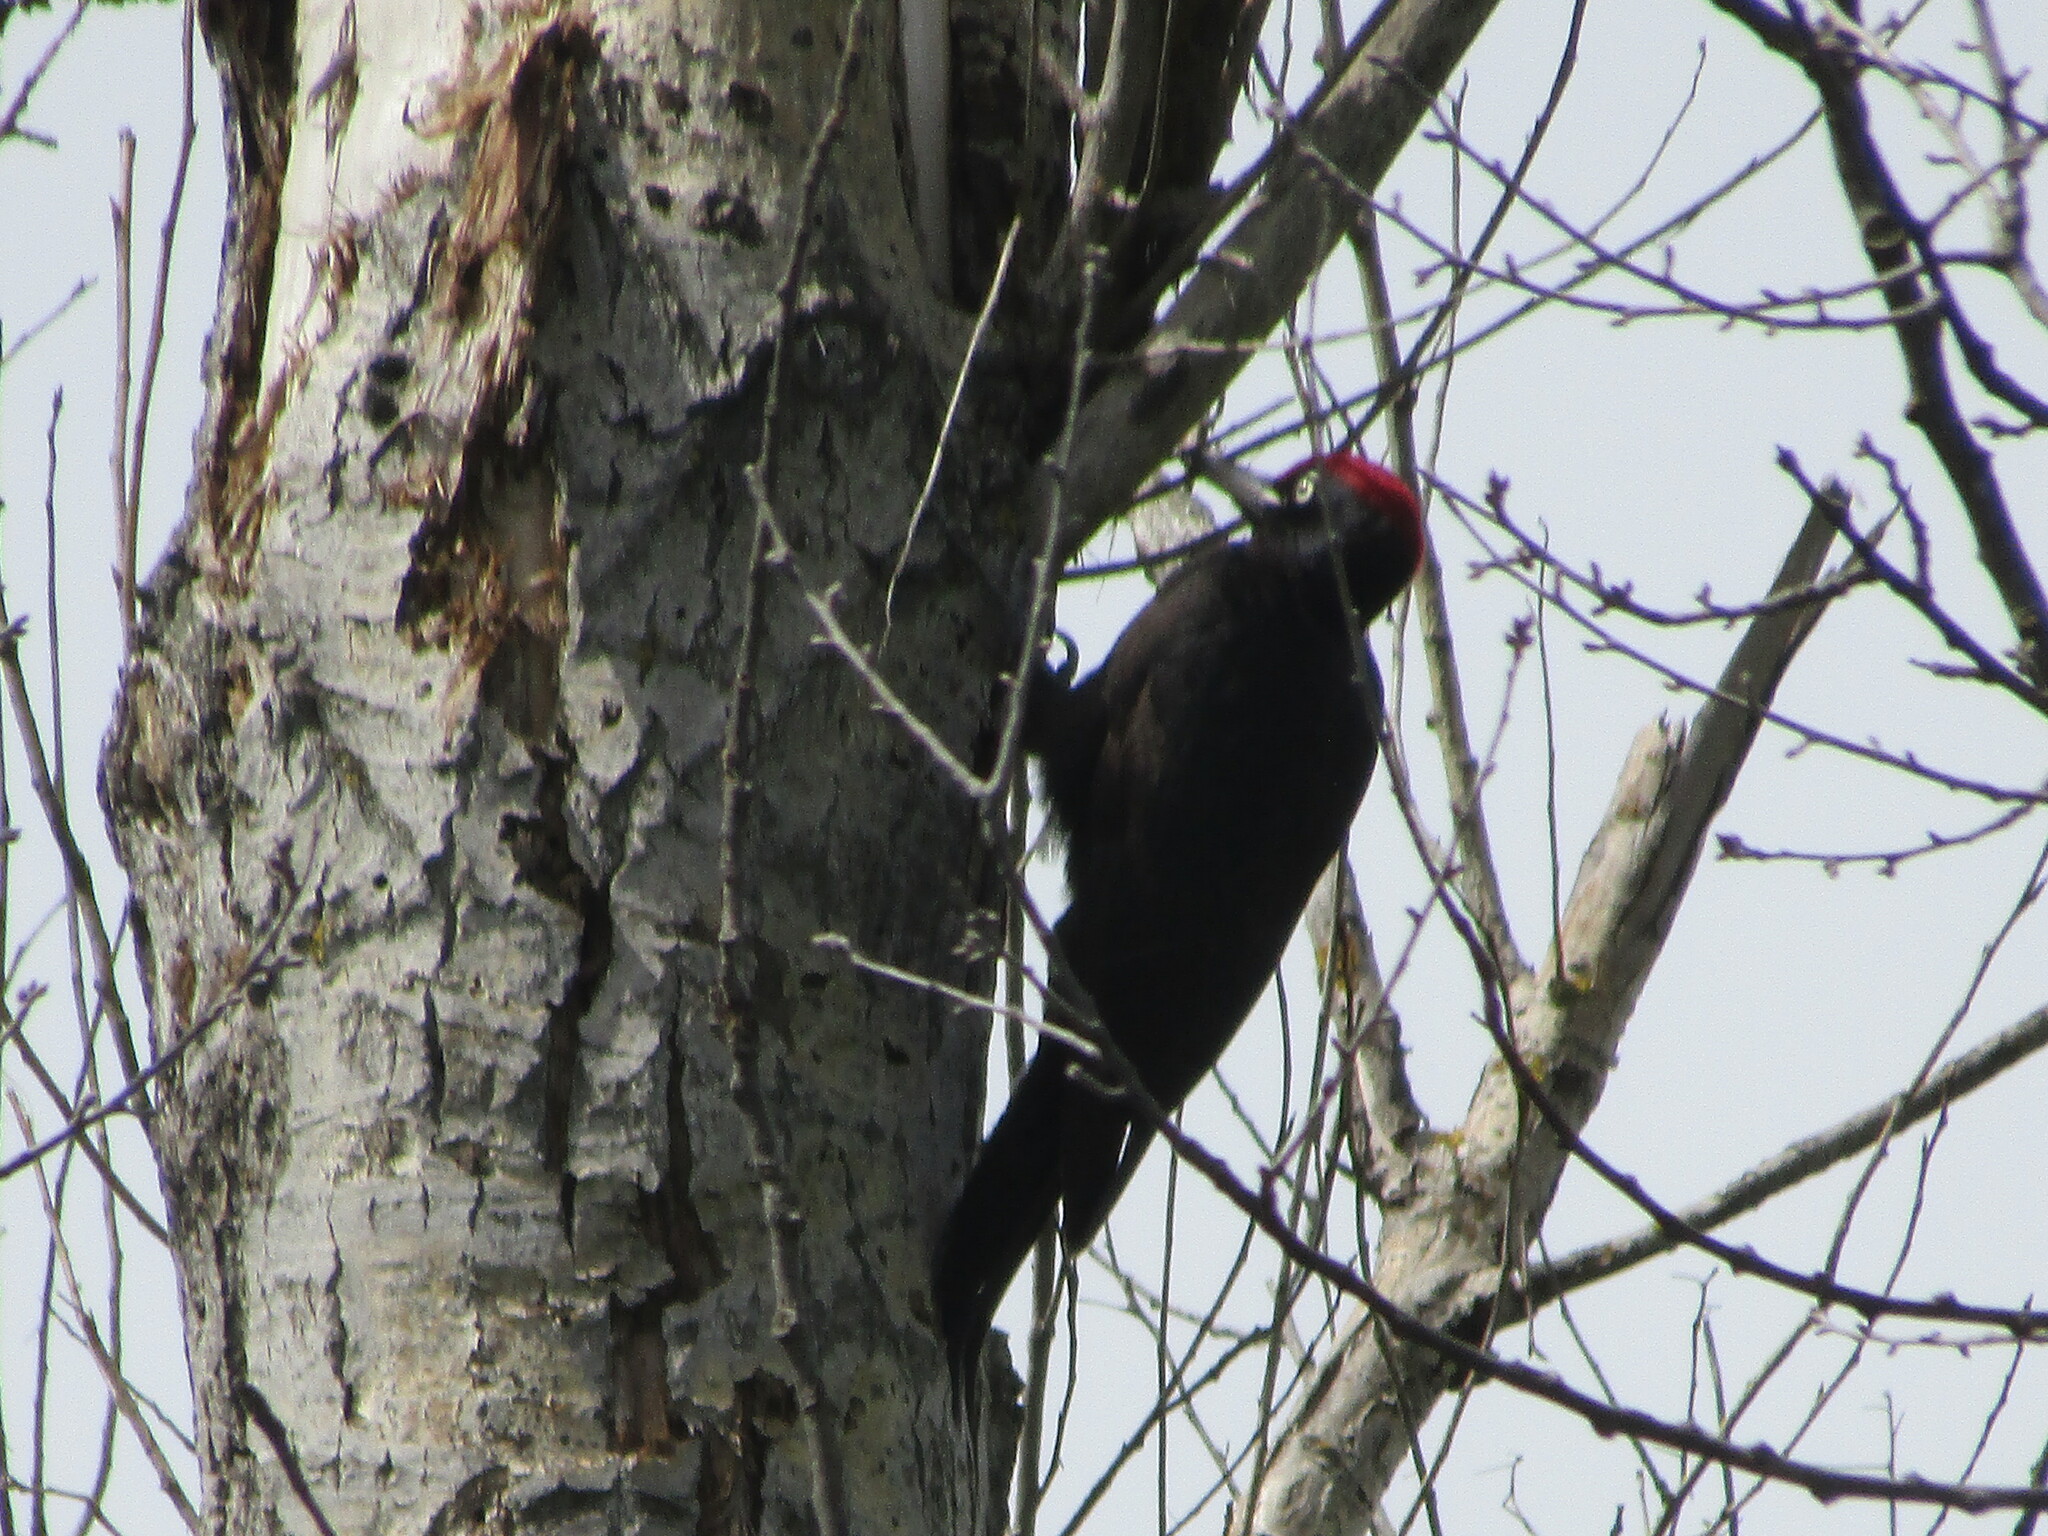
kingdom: Animalia
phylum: Chordata
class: Aves
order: Piciformes
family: Picidae
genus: Dryocopus
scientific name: Dryocopus martius
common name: Black woodpecker
